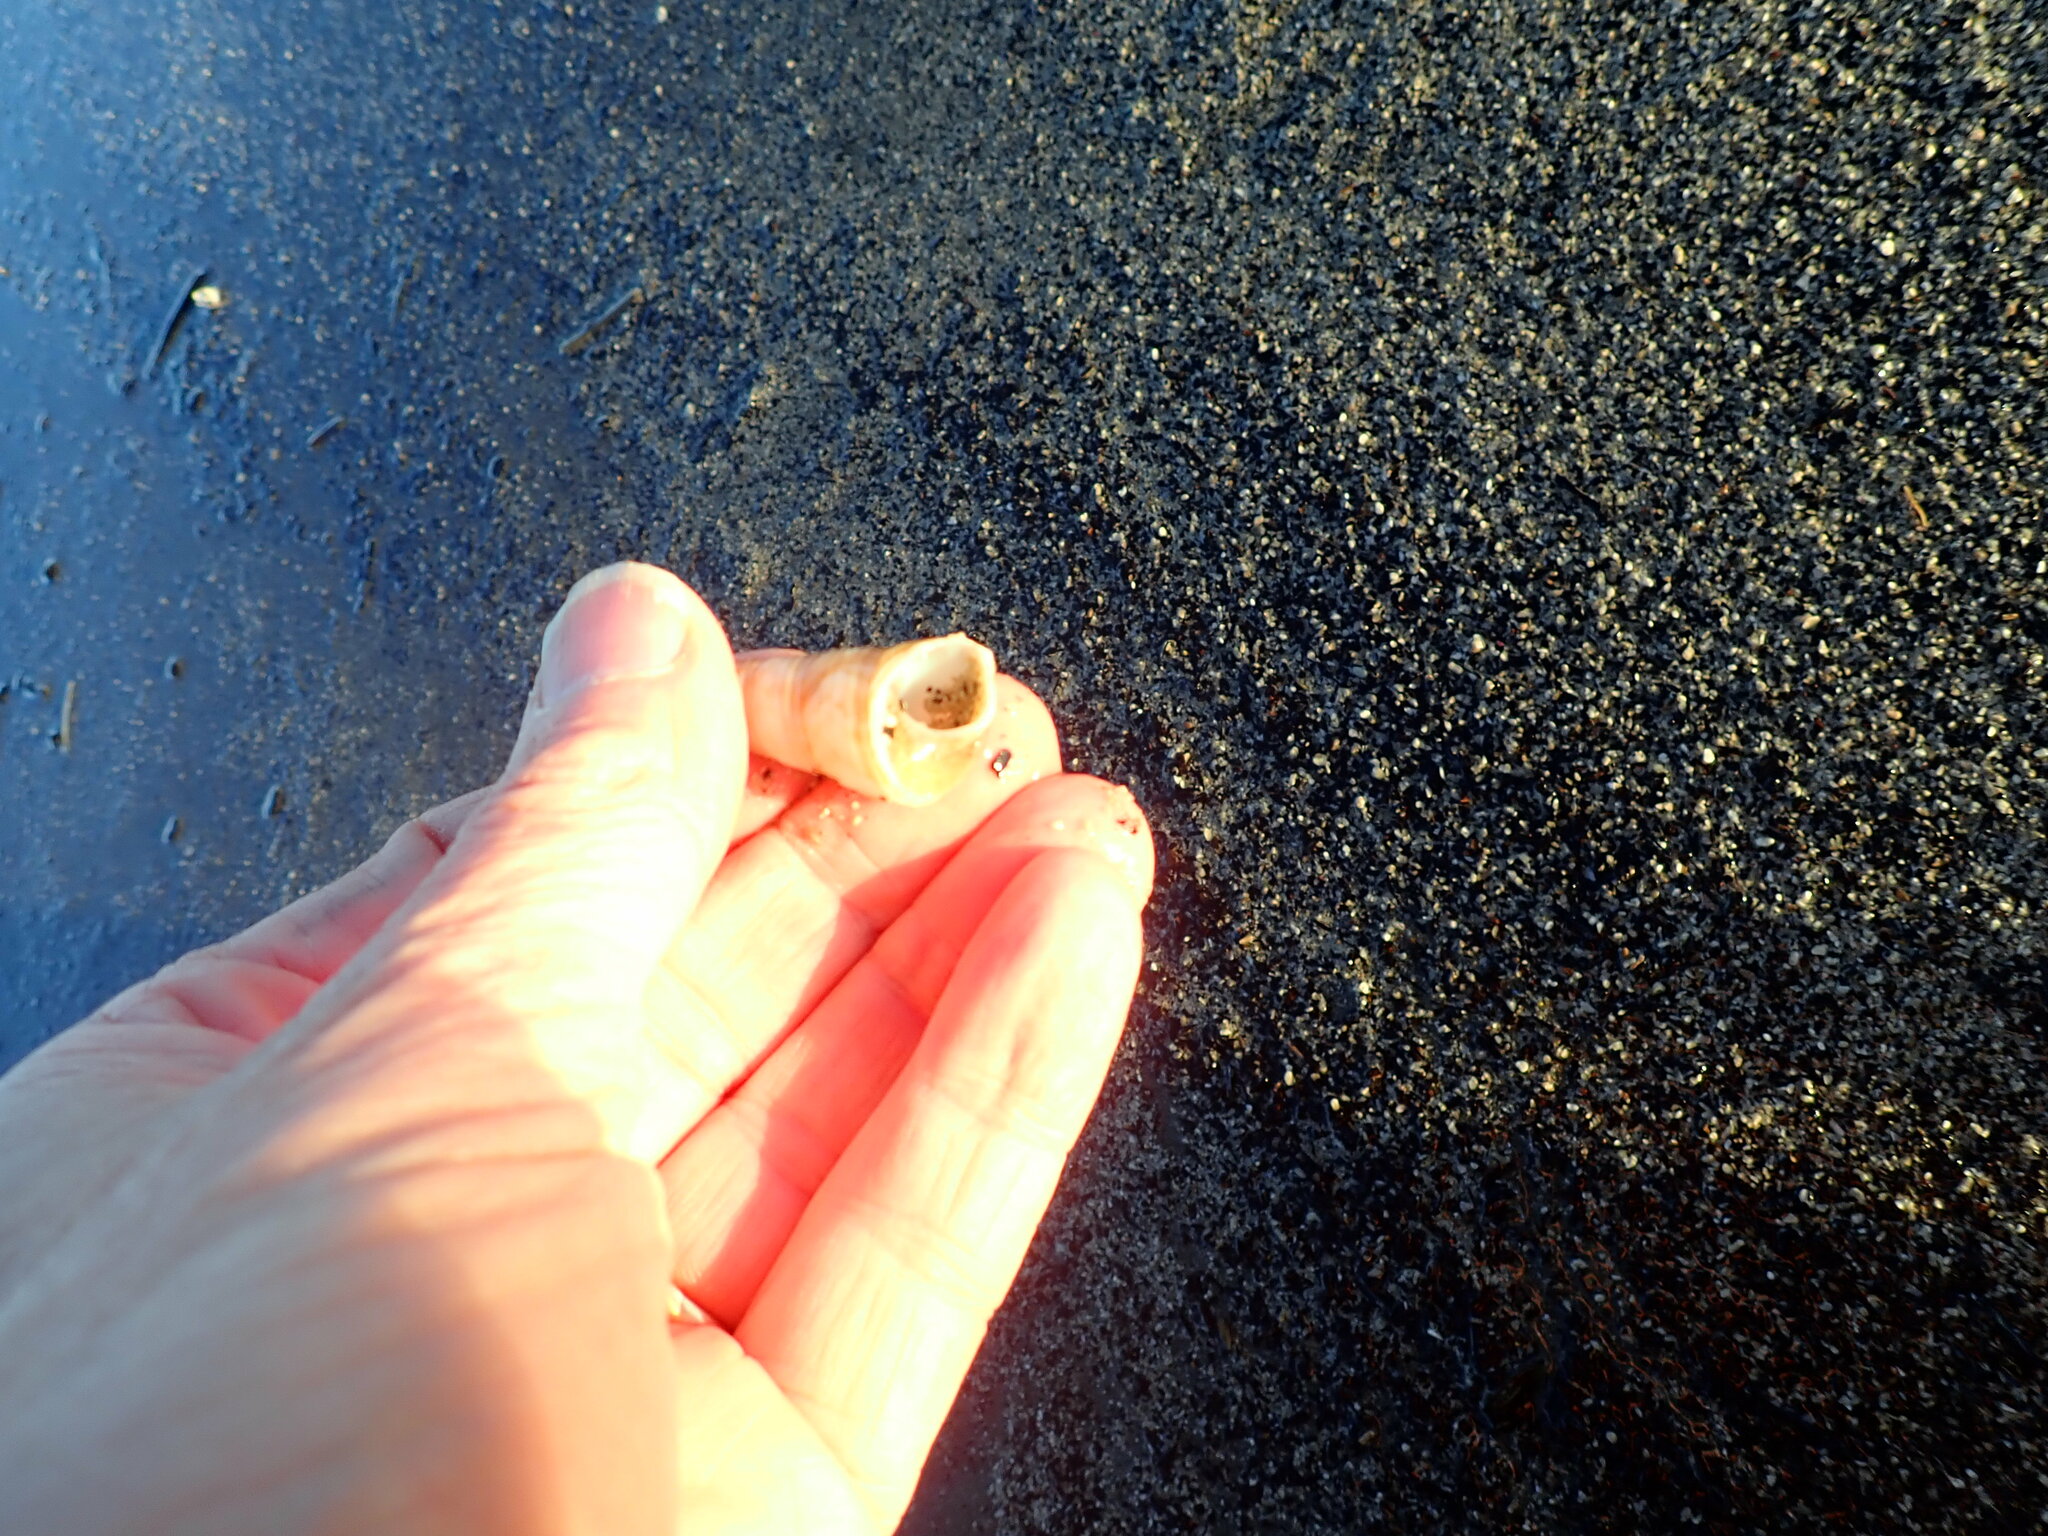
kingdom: Animalia
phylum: Mollusca
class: Gastropoda
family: Turritellidae
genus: Maoricolpus
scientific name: Maoricolpus roseus
